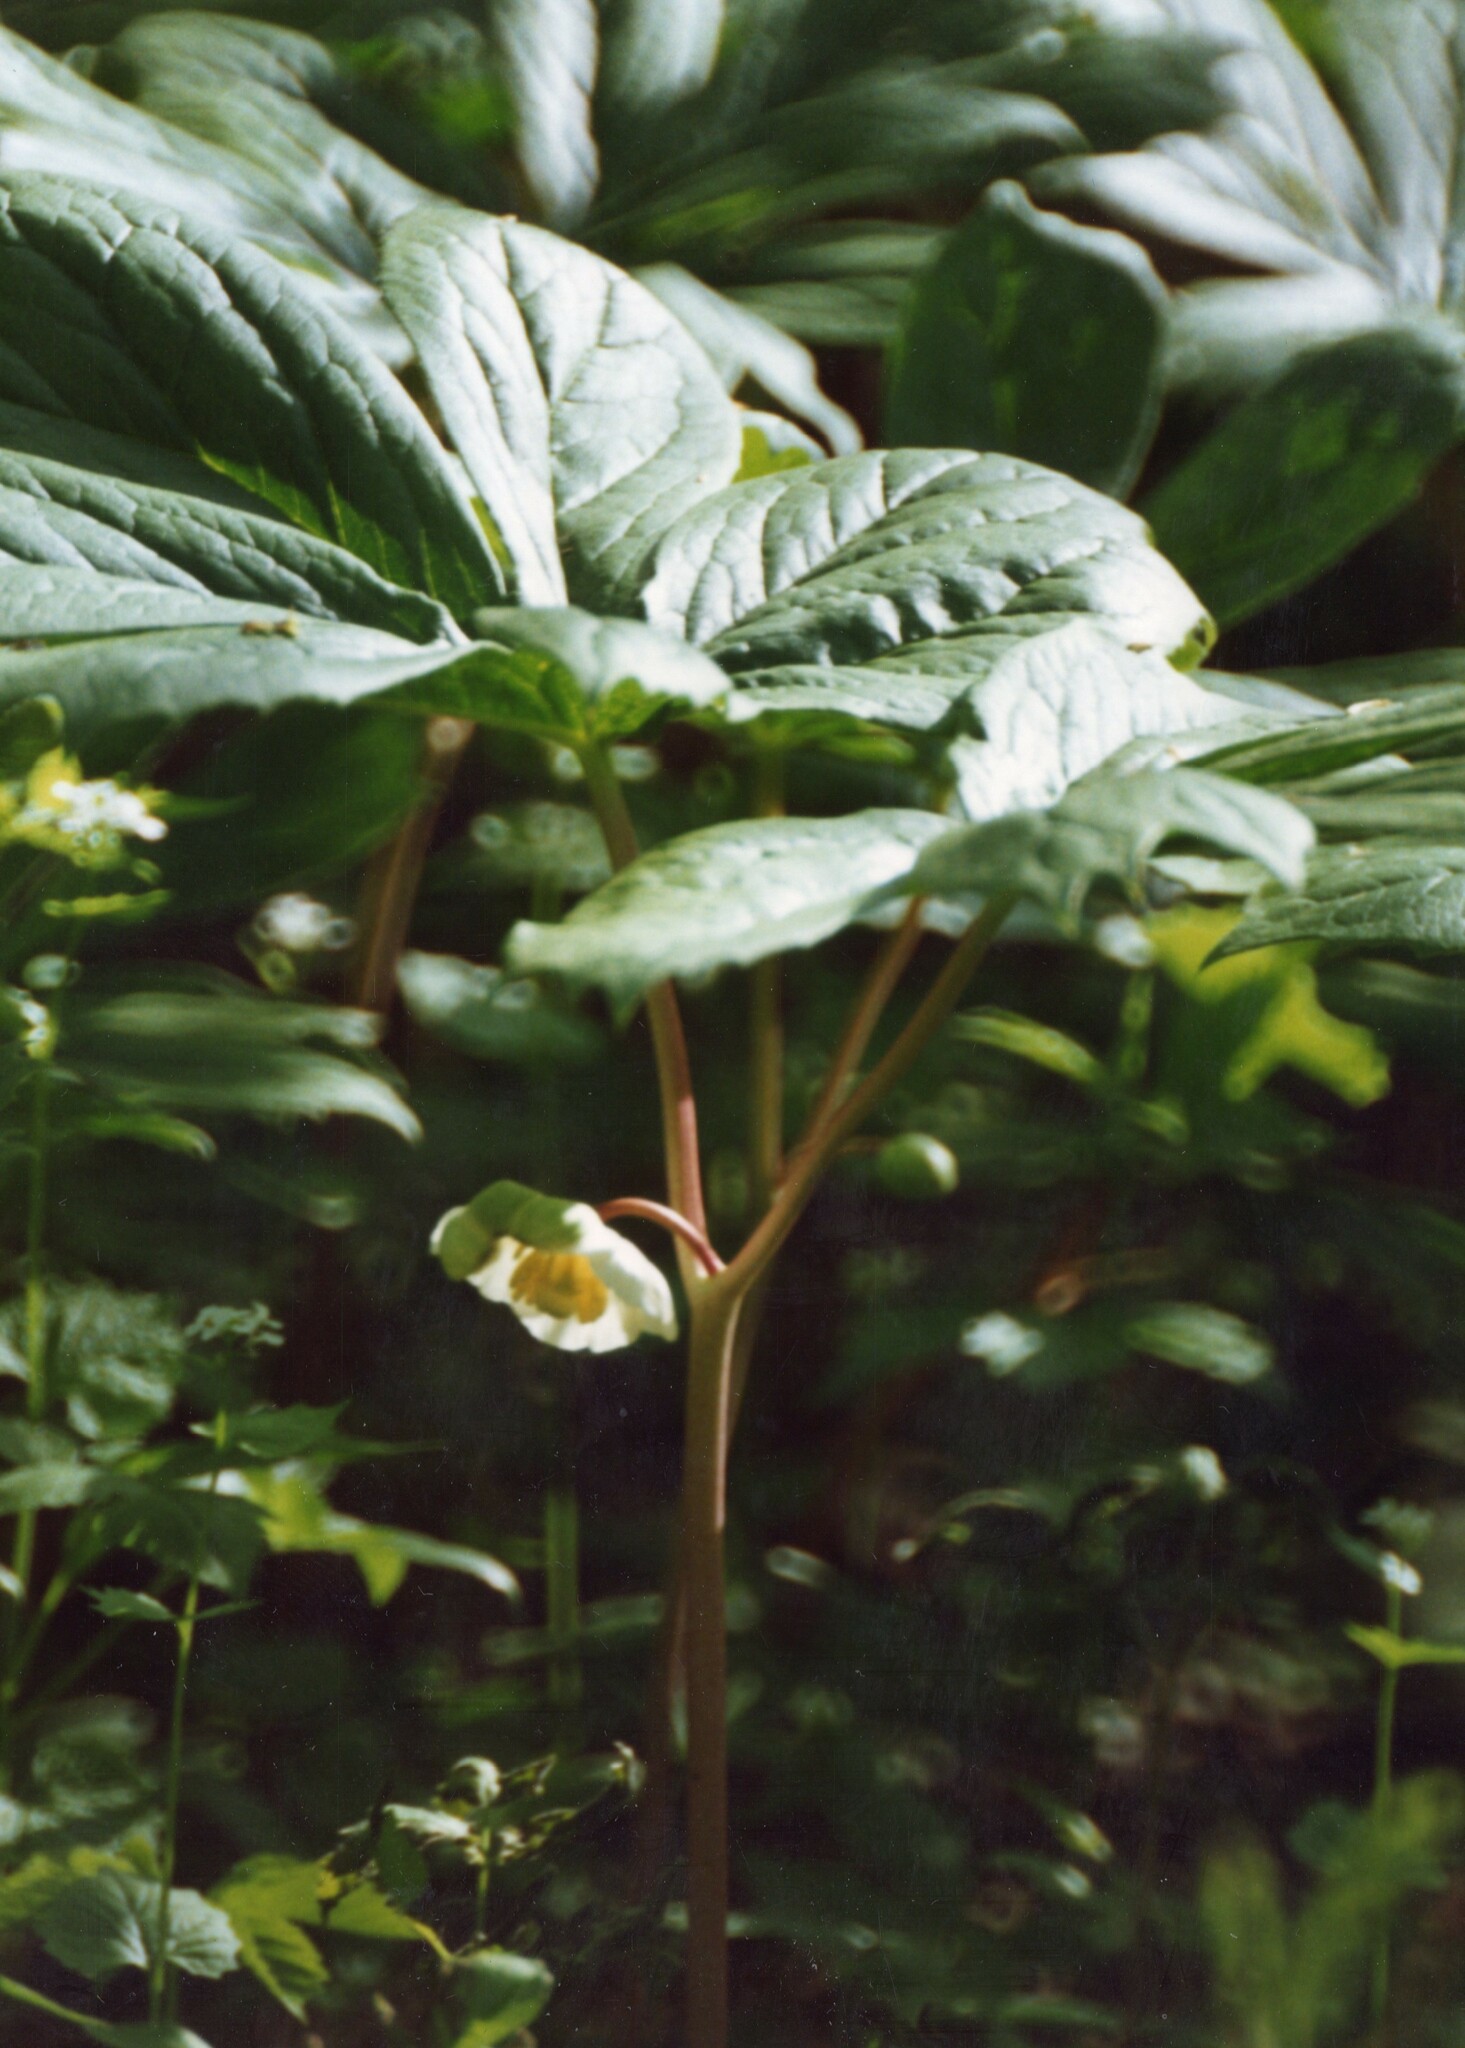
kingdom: Plantae
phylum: Tracheophyta
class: Magnoliopsida
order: Ranunculales
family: Berberidaceae
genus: Podophyllum
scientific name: Podophyllum peltatum
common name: Wild mandrake
